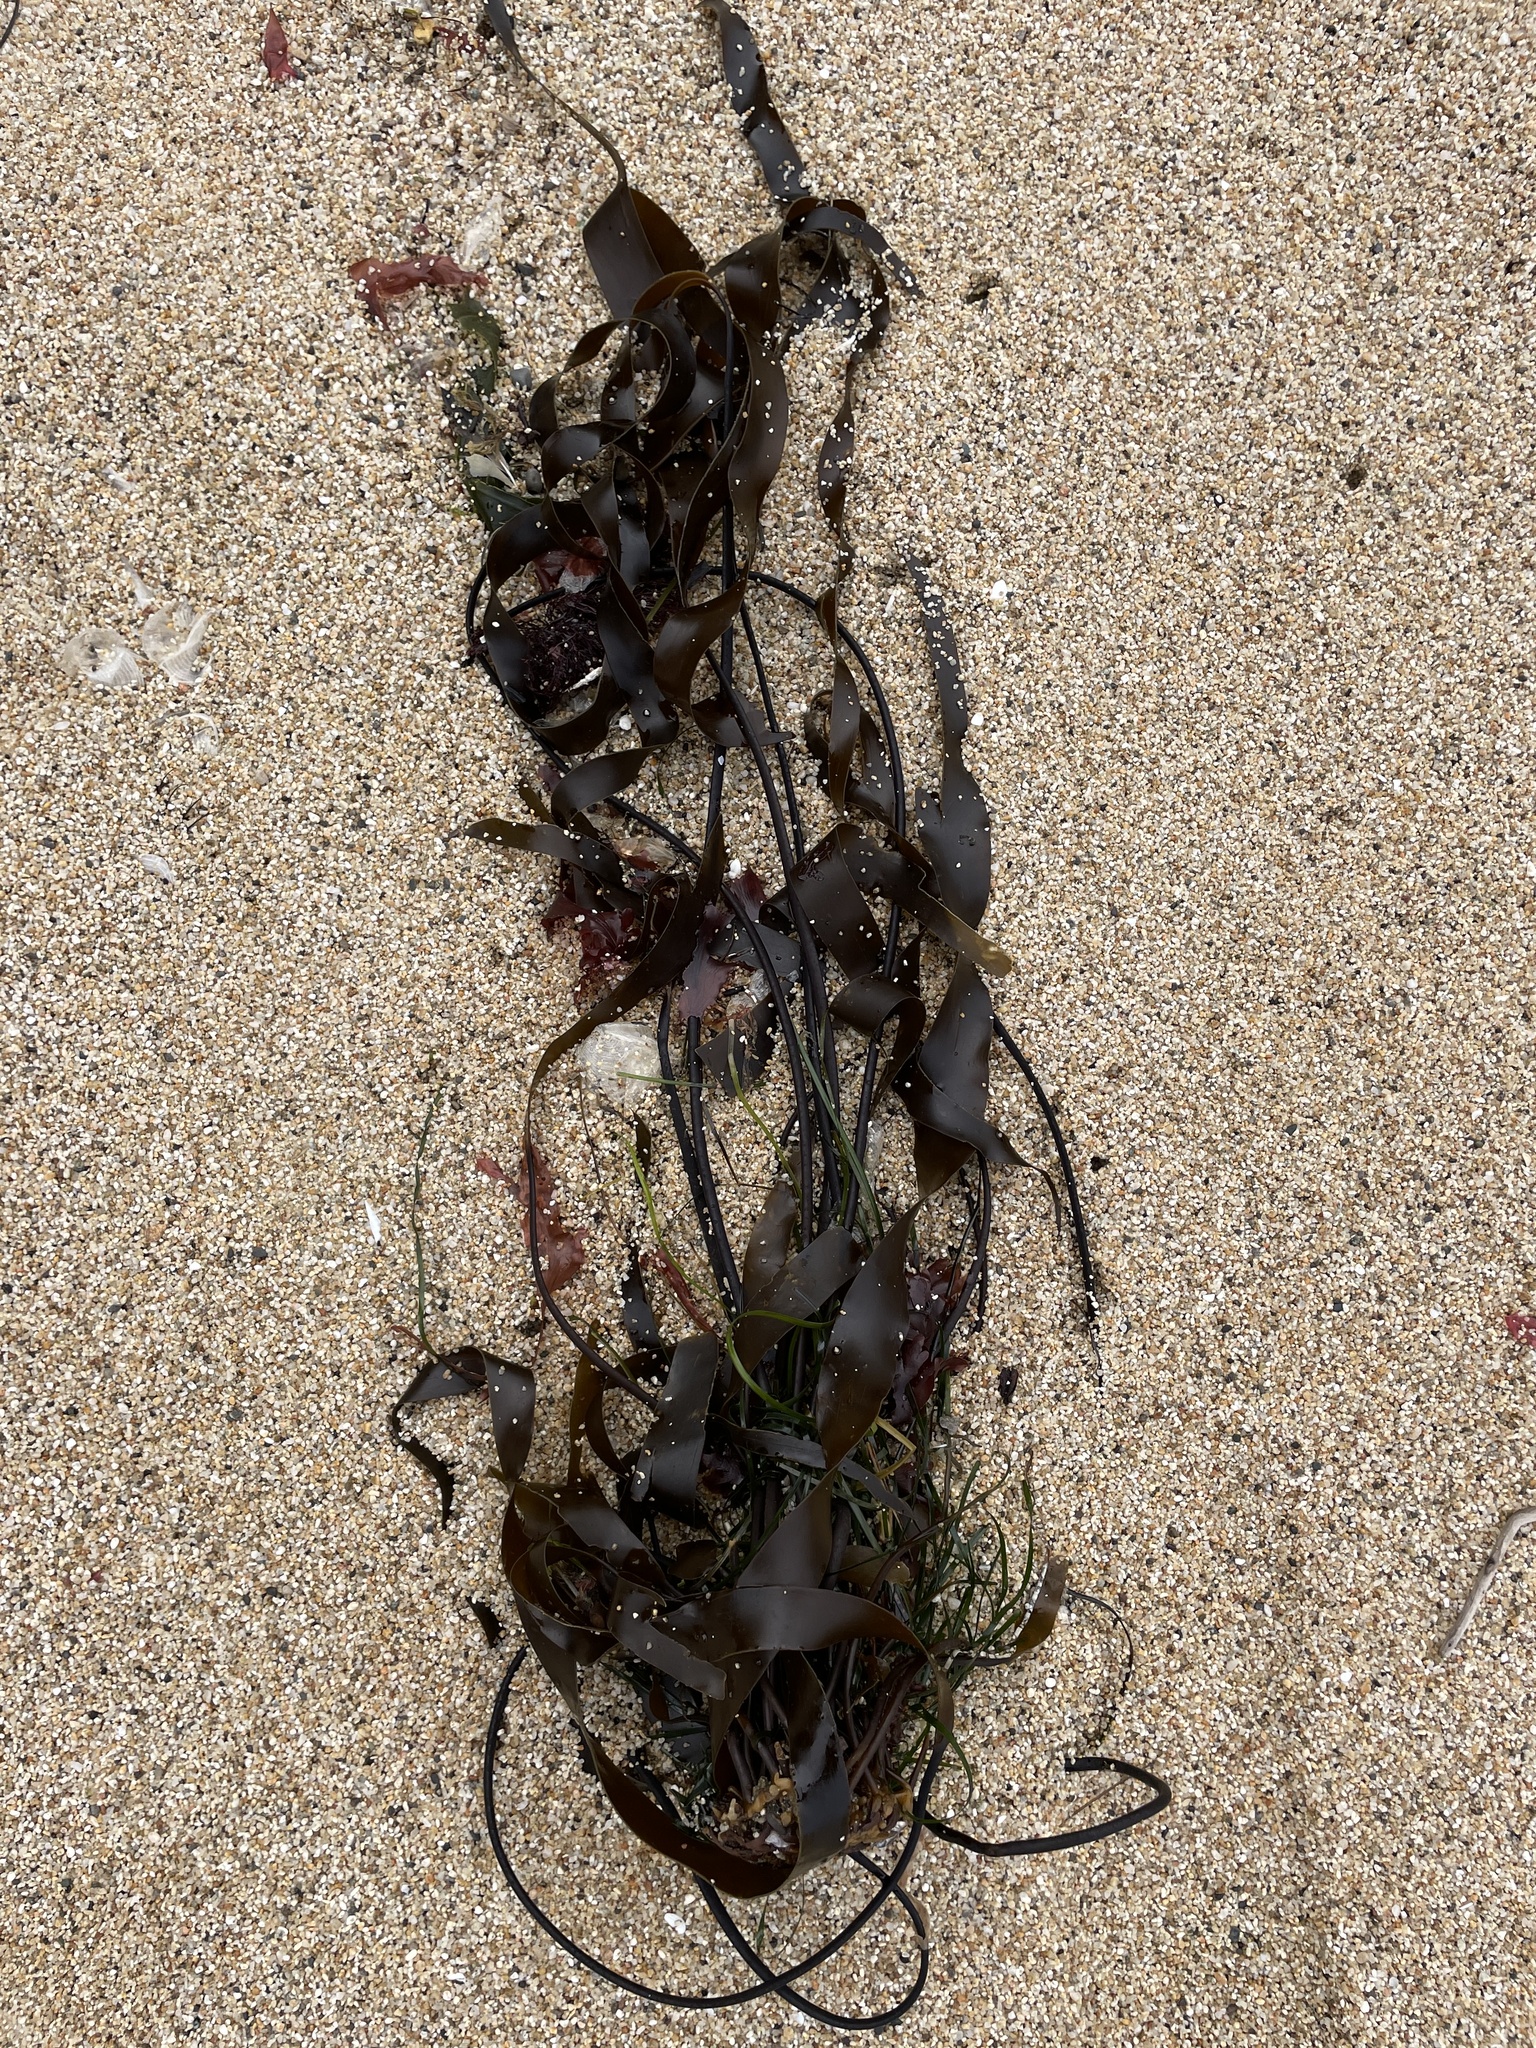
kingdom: Chromista
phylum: Ochrophyta
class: Phaeophyceae
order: Laminariales
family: Laminariaceae
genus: Laminaria
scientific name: Laminaria sinclairii
